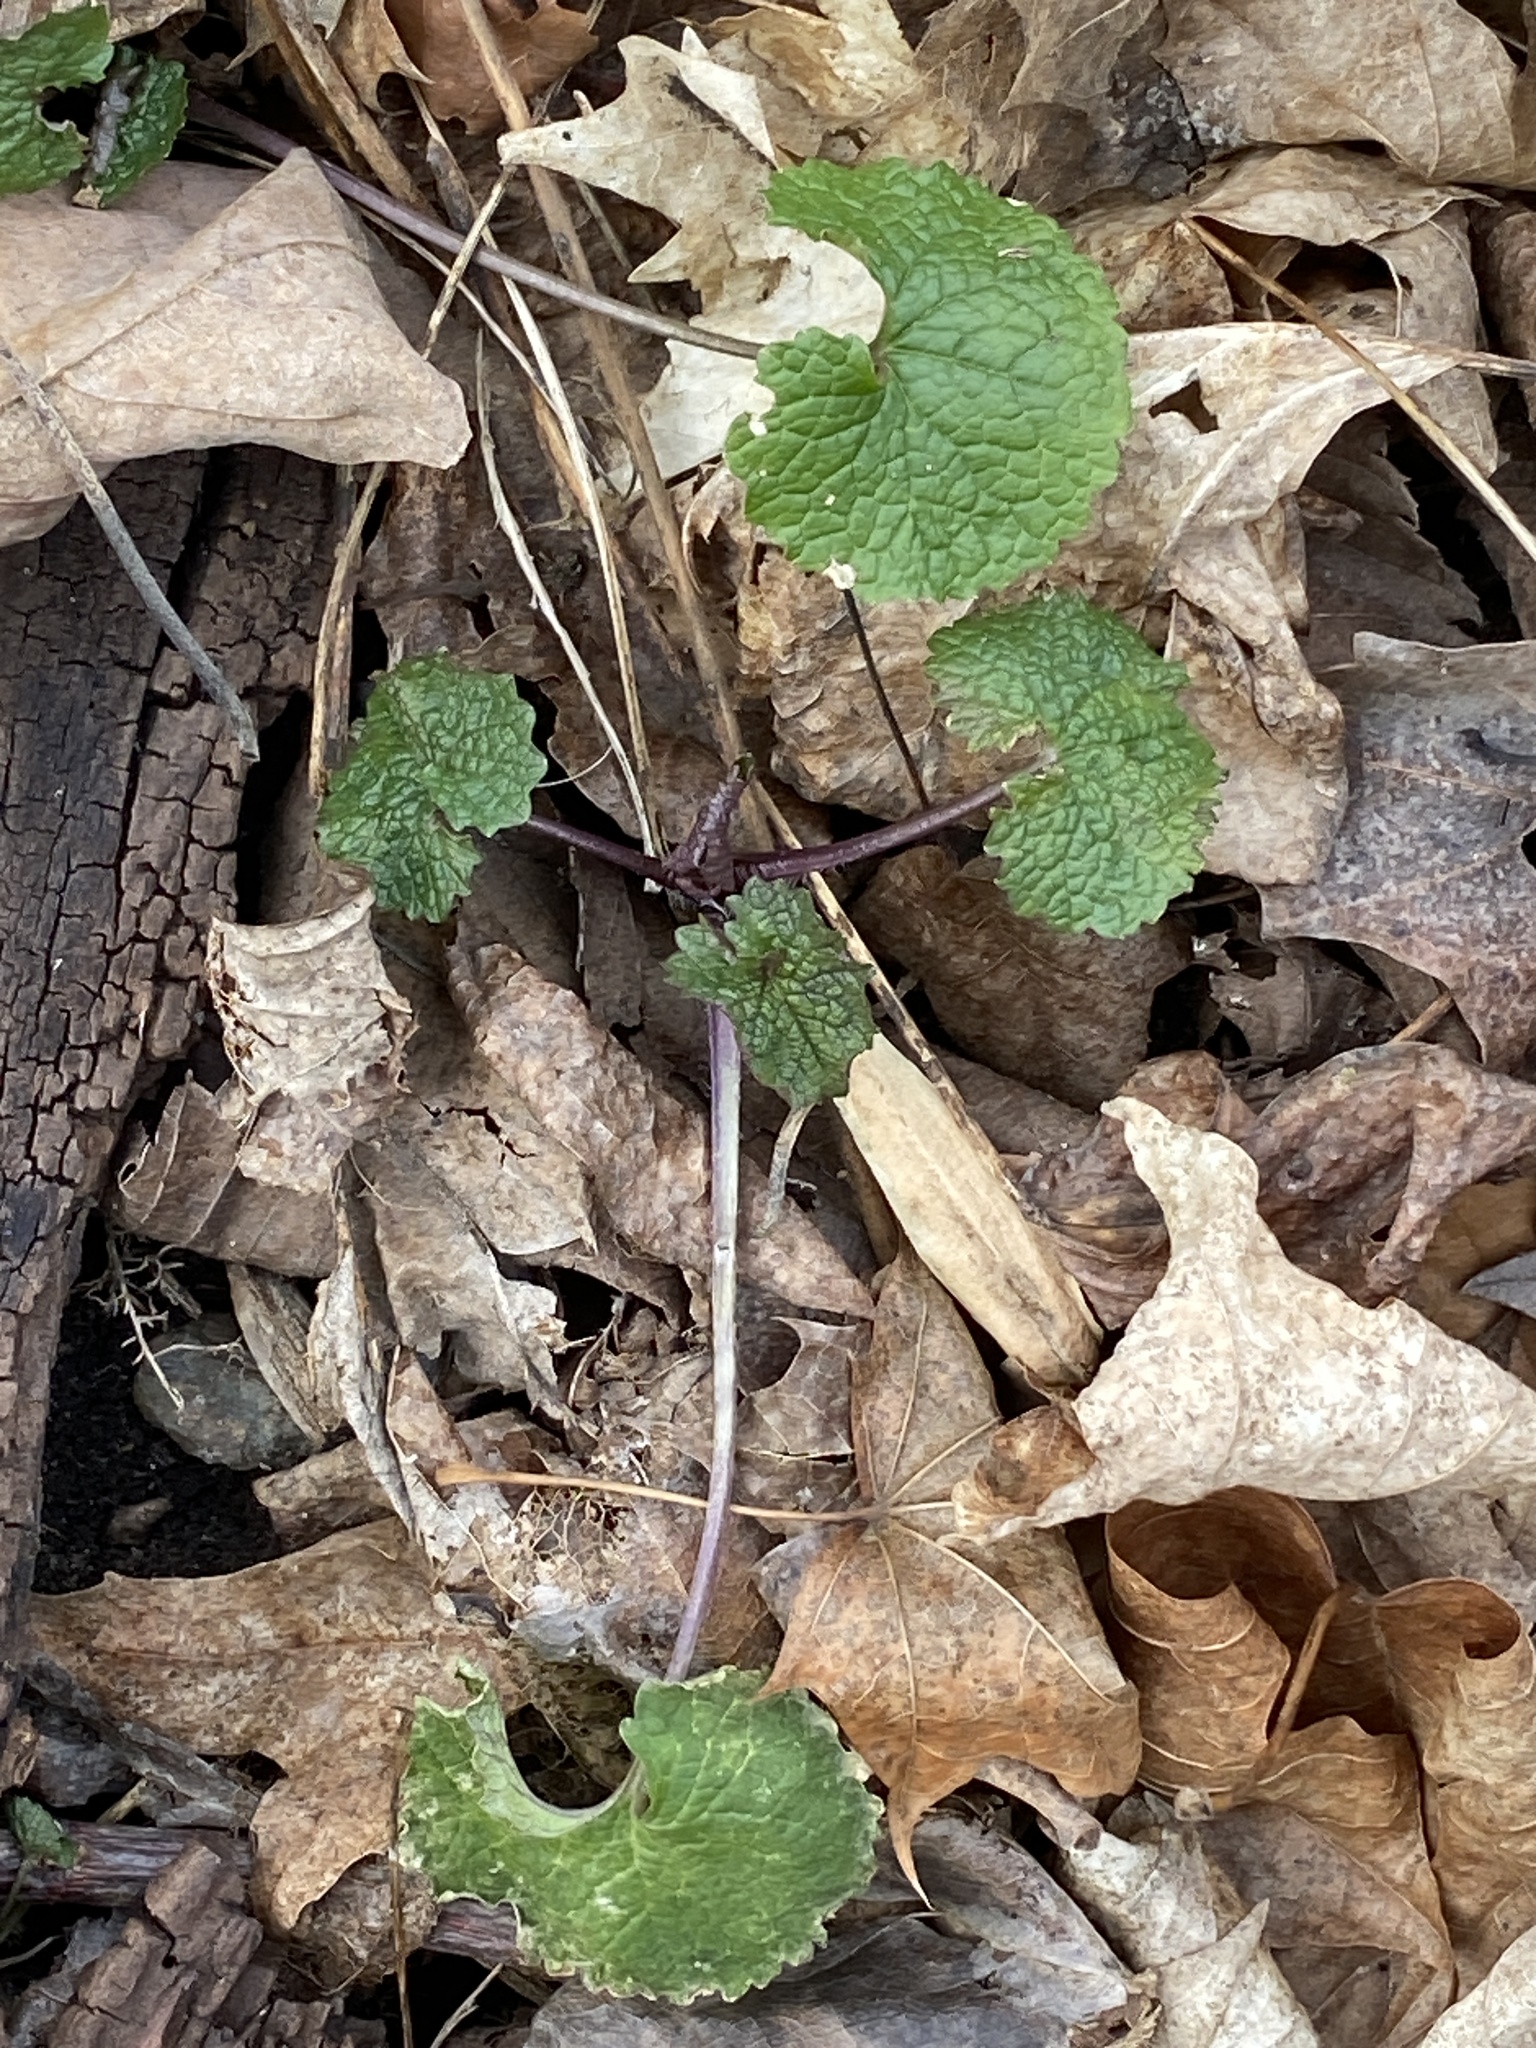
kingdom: Plantae
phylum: Tracheophyta
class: Magnoliopsida
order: Brassicales
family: Brassicaceae
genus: Alliaria
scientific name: Alliaria petiolata
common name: Garlic mustard
